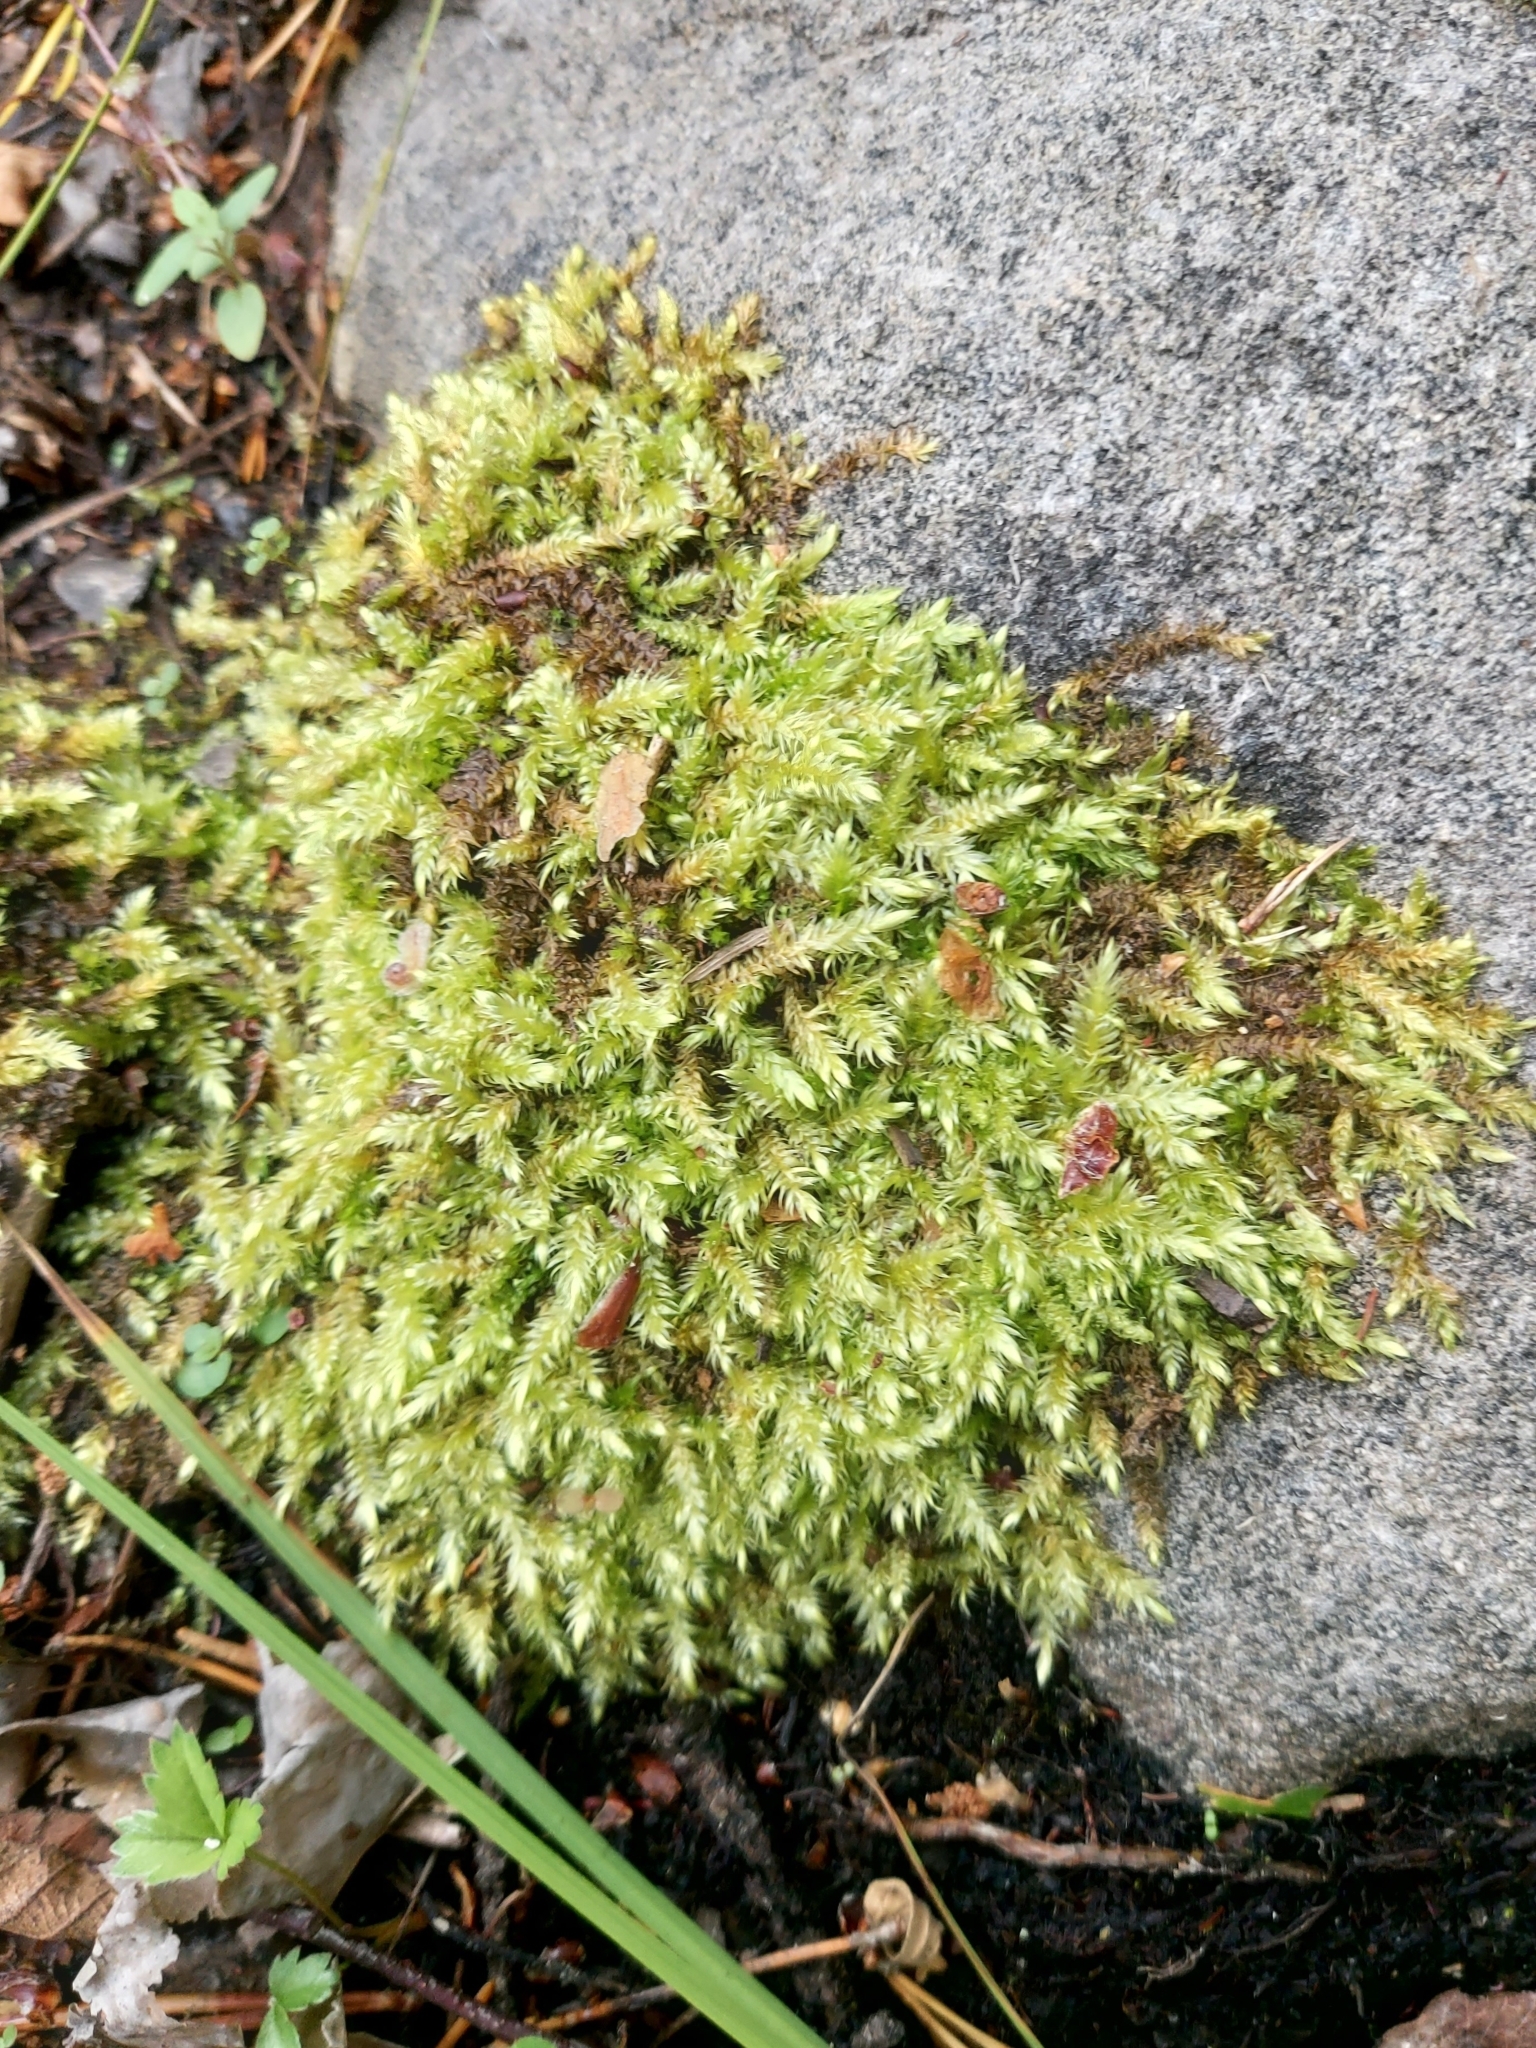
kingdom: Plantae
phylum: Bryophyta
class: Bryopsida
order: Hypnales
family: Brachytheciaceae
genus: Brachythecium
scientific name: Brachythecium rivulare
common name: River ragged moss
